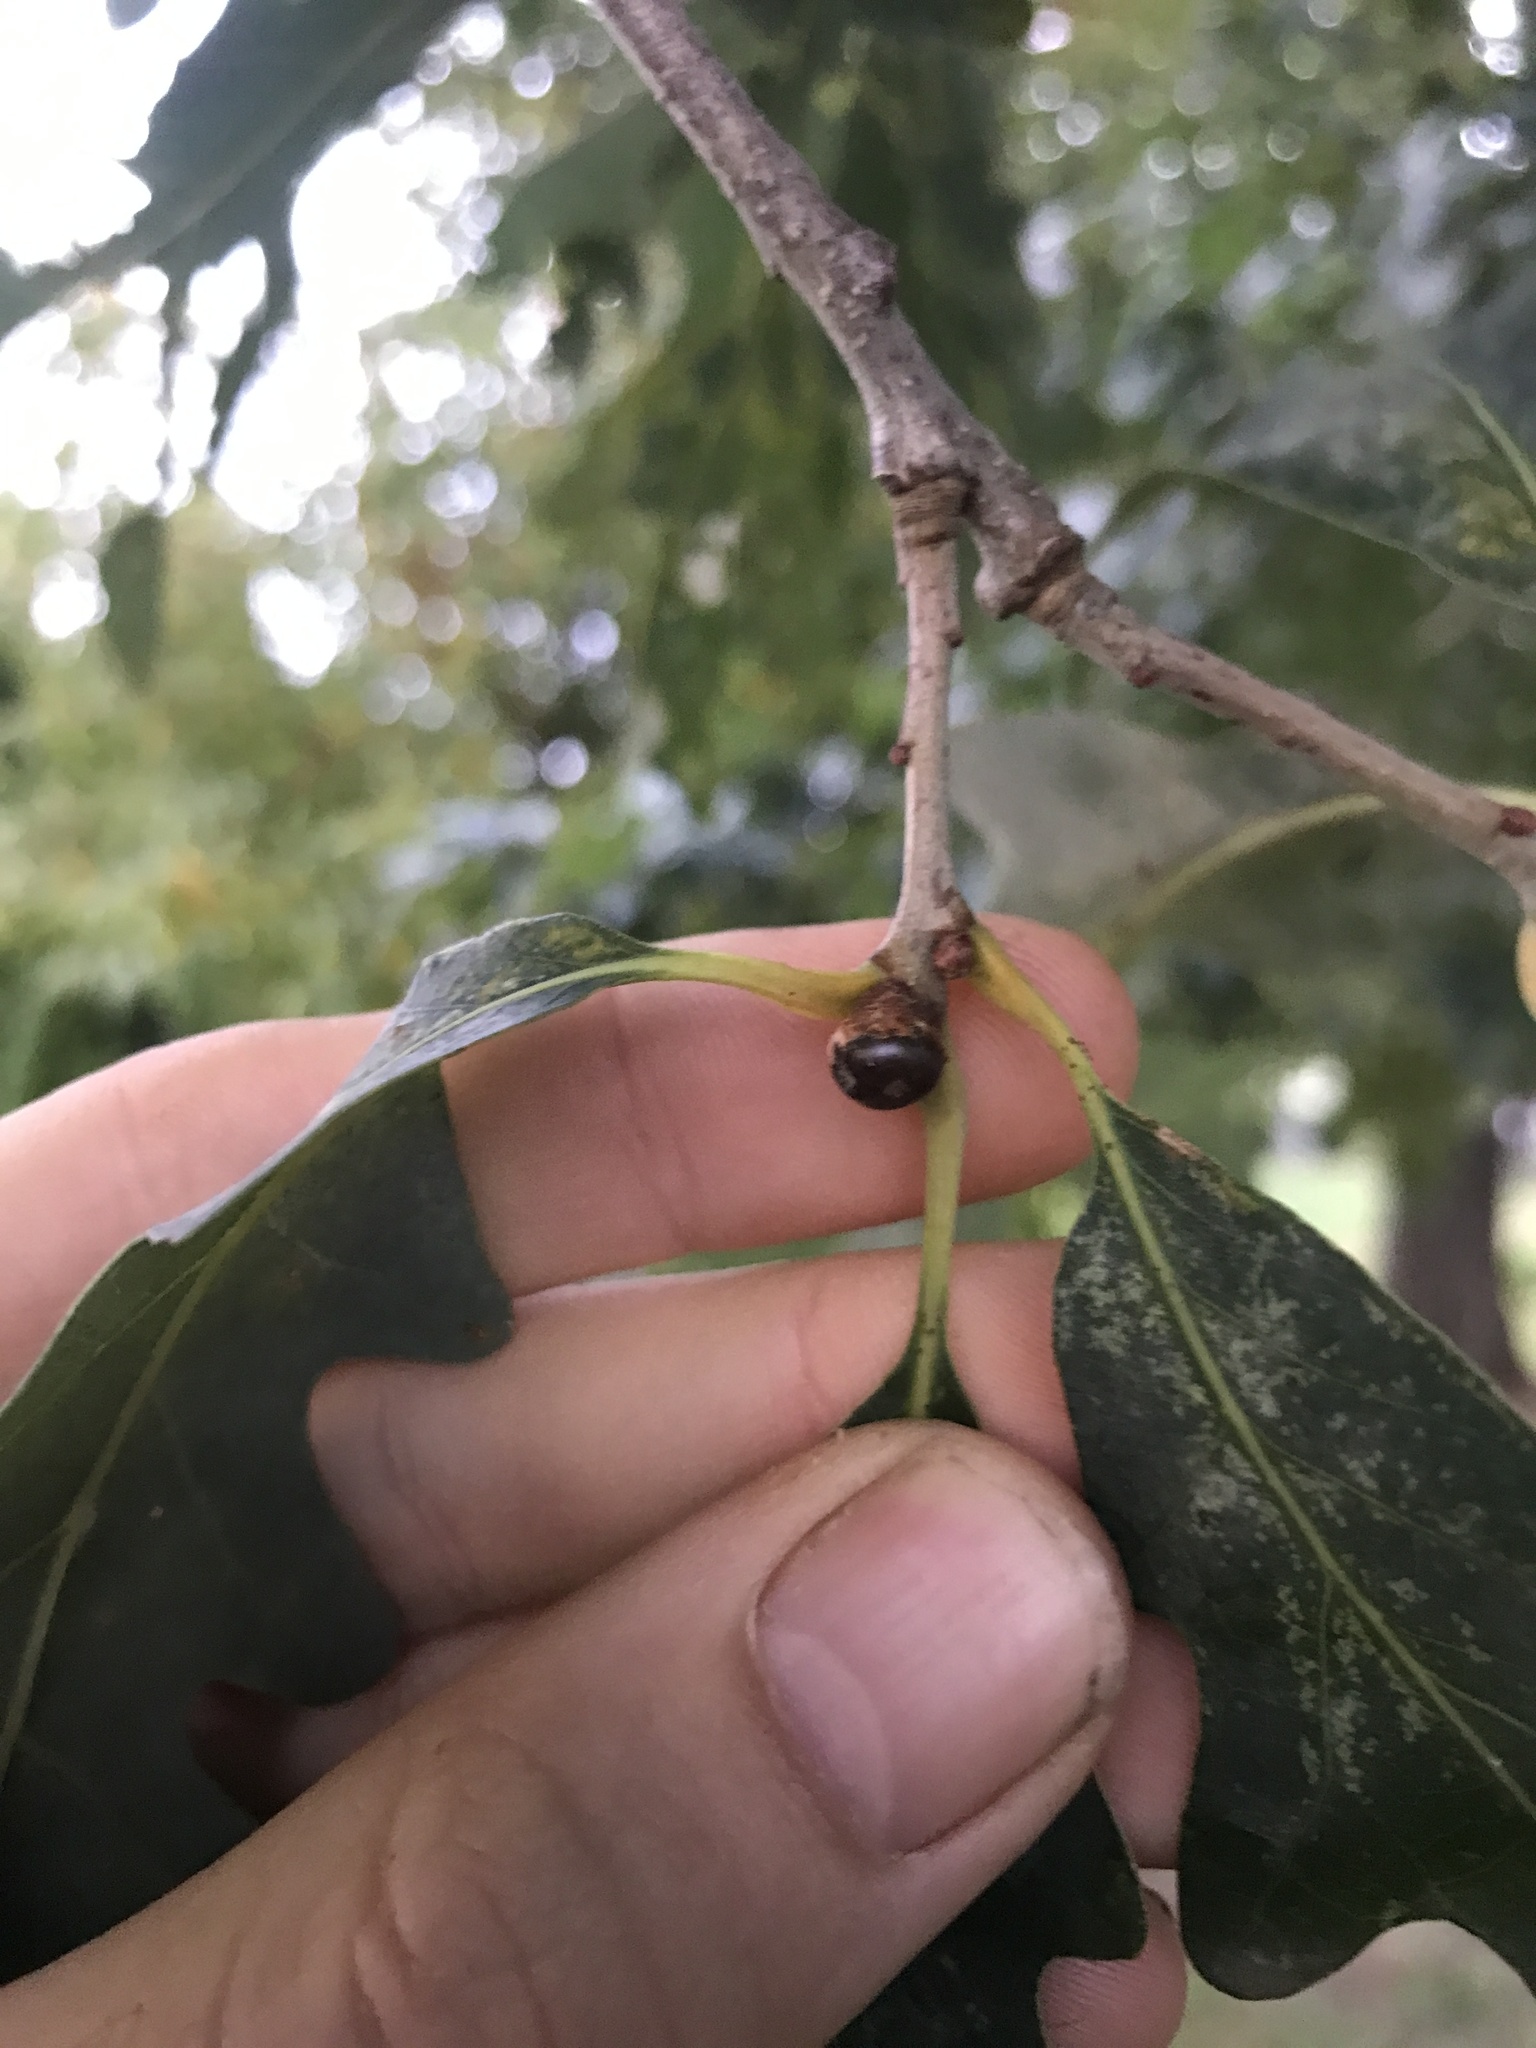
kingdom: Animalia
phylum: Arthropoda
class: Insecta
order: Hymenoptera
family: Cynipidae
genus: Andricus
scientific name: Andricus
